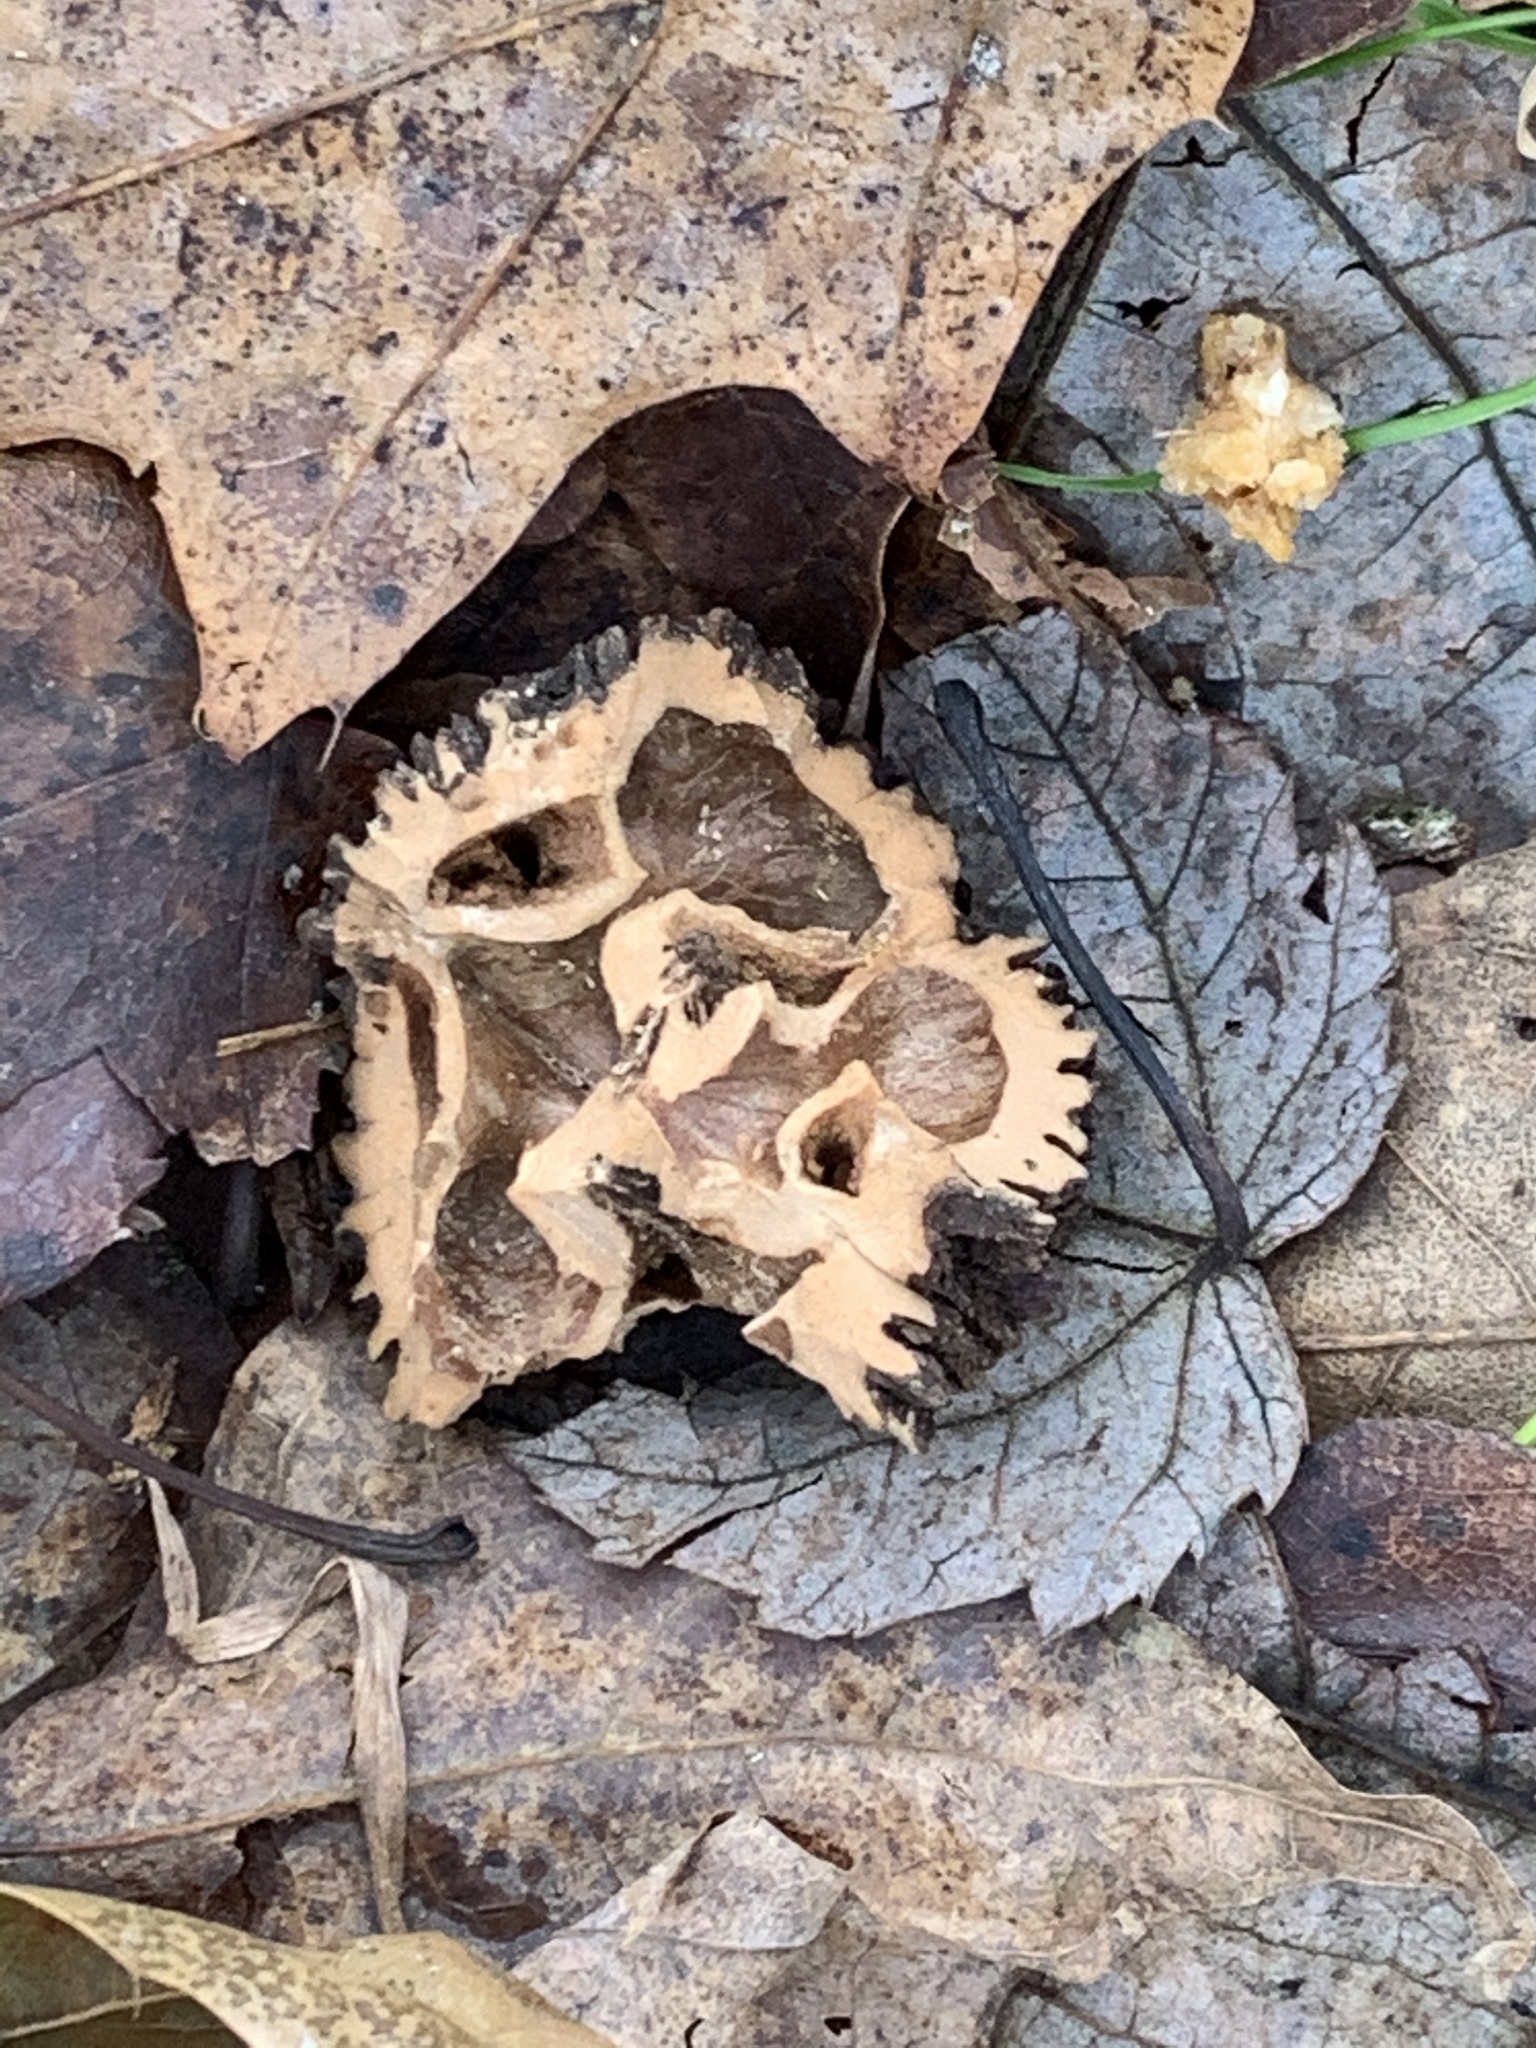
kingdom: Plantae
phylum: Tracheophyta
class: Magnoliopsida
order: Fagales
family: Juglandaceae
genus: Juglans
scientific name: Juglans nigra
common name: Black walnut
